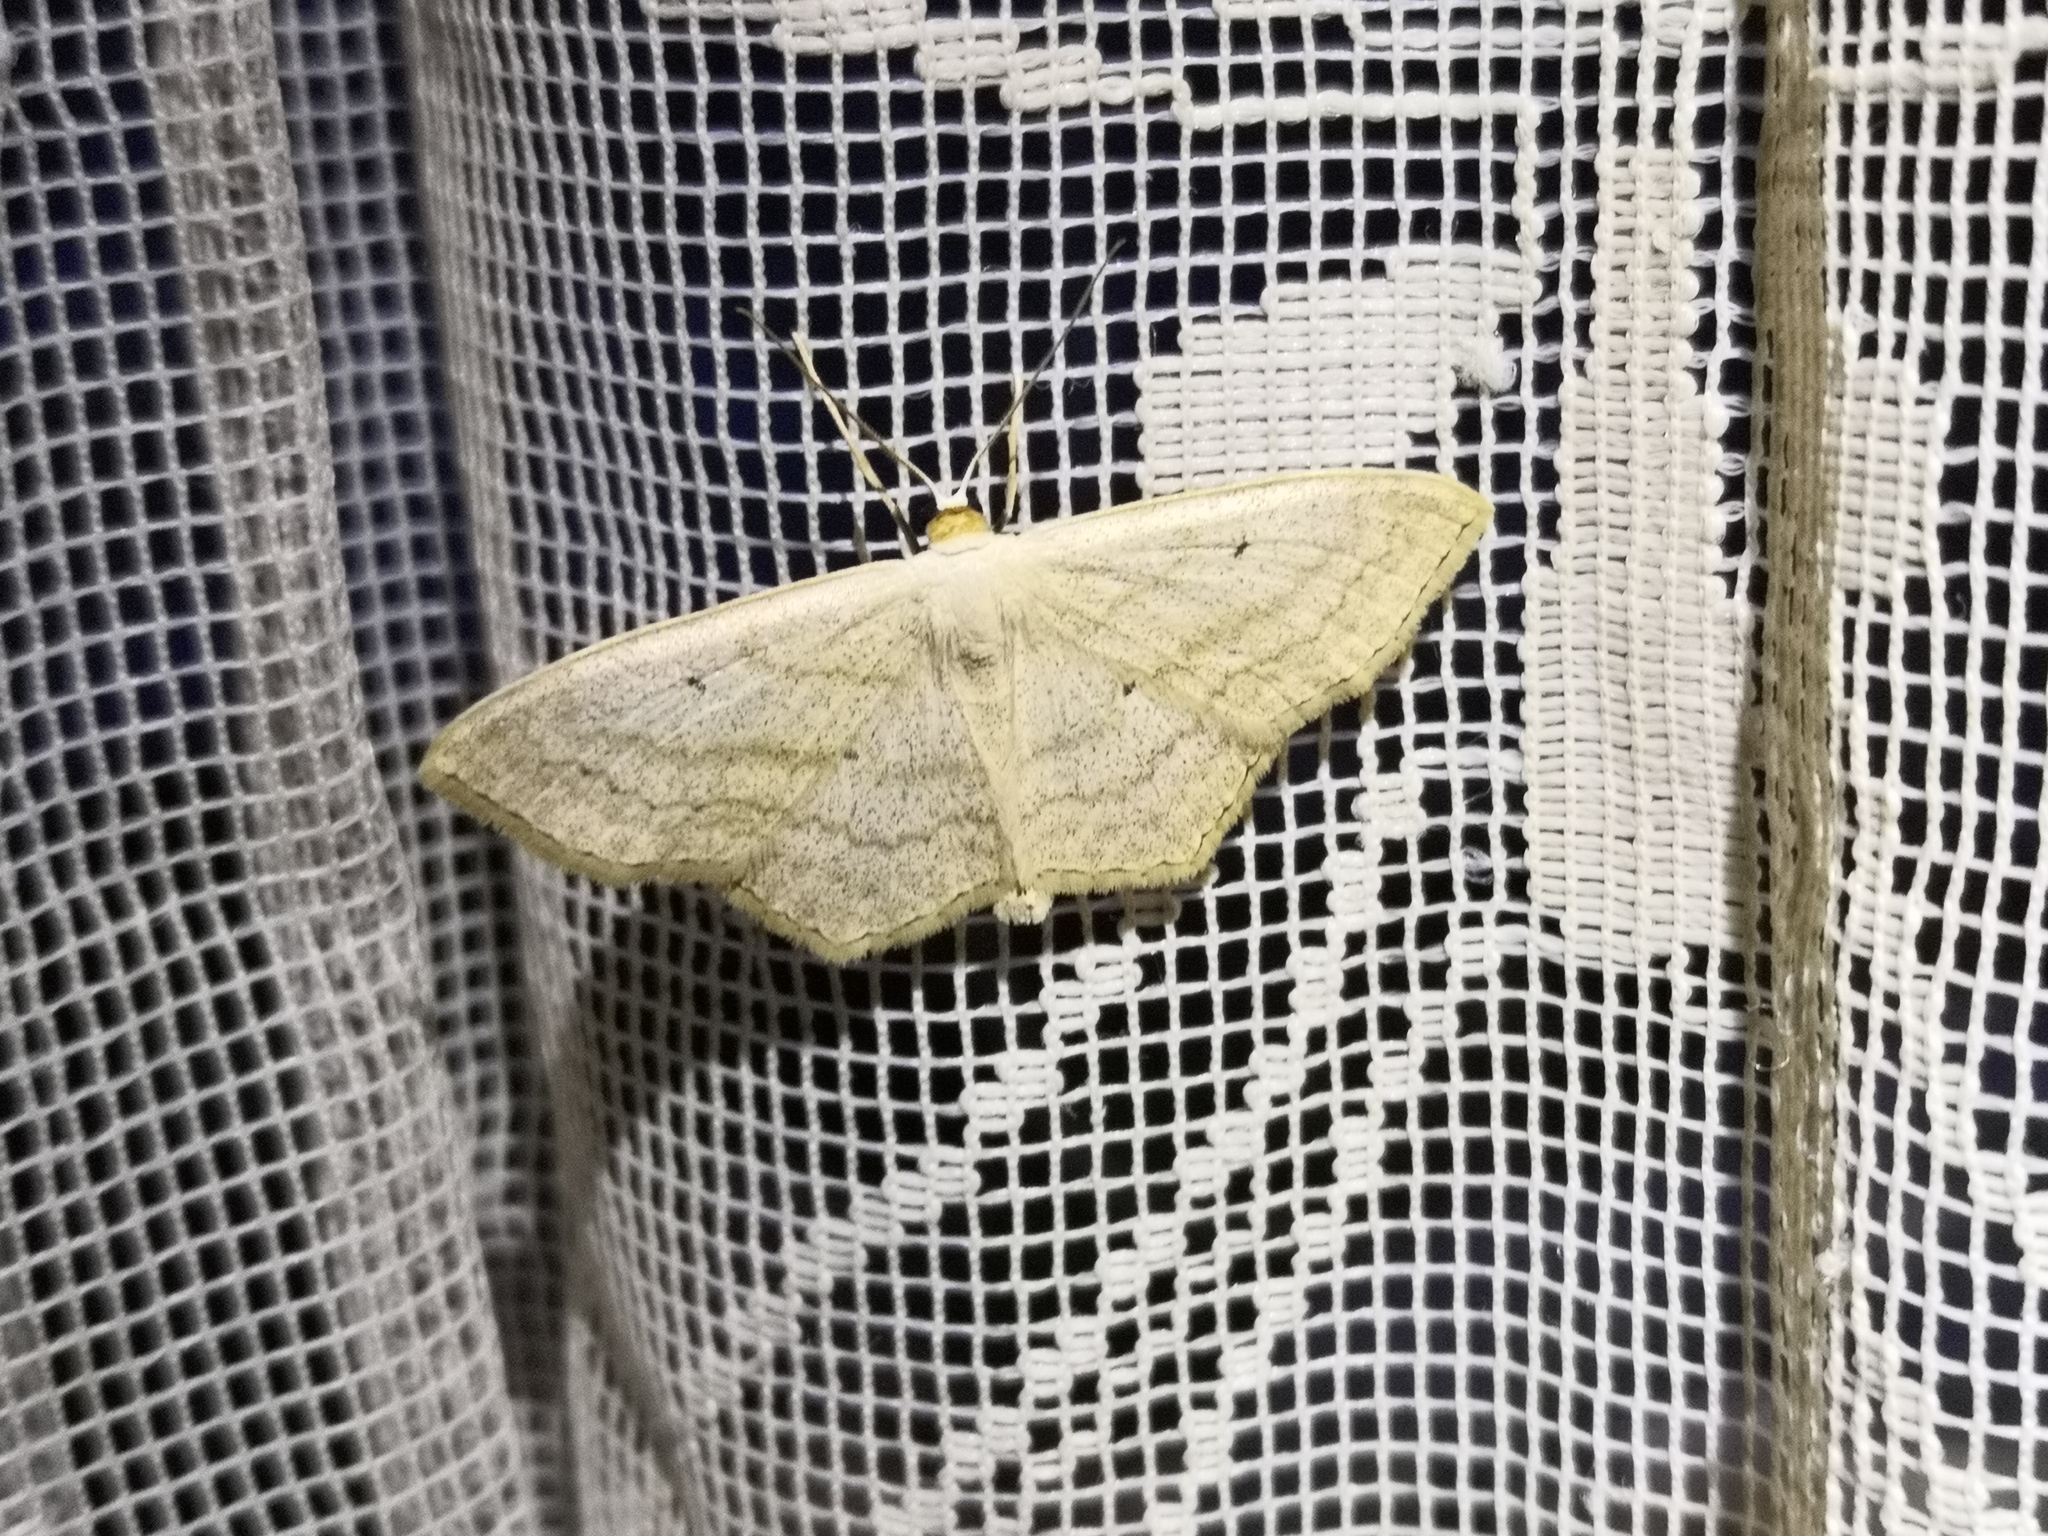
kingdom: Animalia
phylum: Arthropoda
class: Insecta
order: Lepidoptera
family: Geometridae
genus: Scopula
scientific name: Scopula nigropunctata
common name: Sub-angled wave
